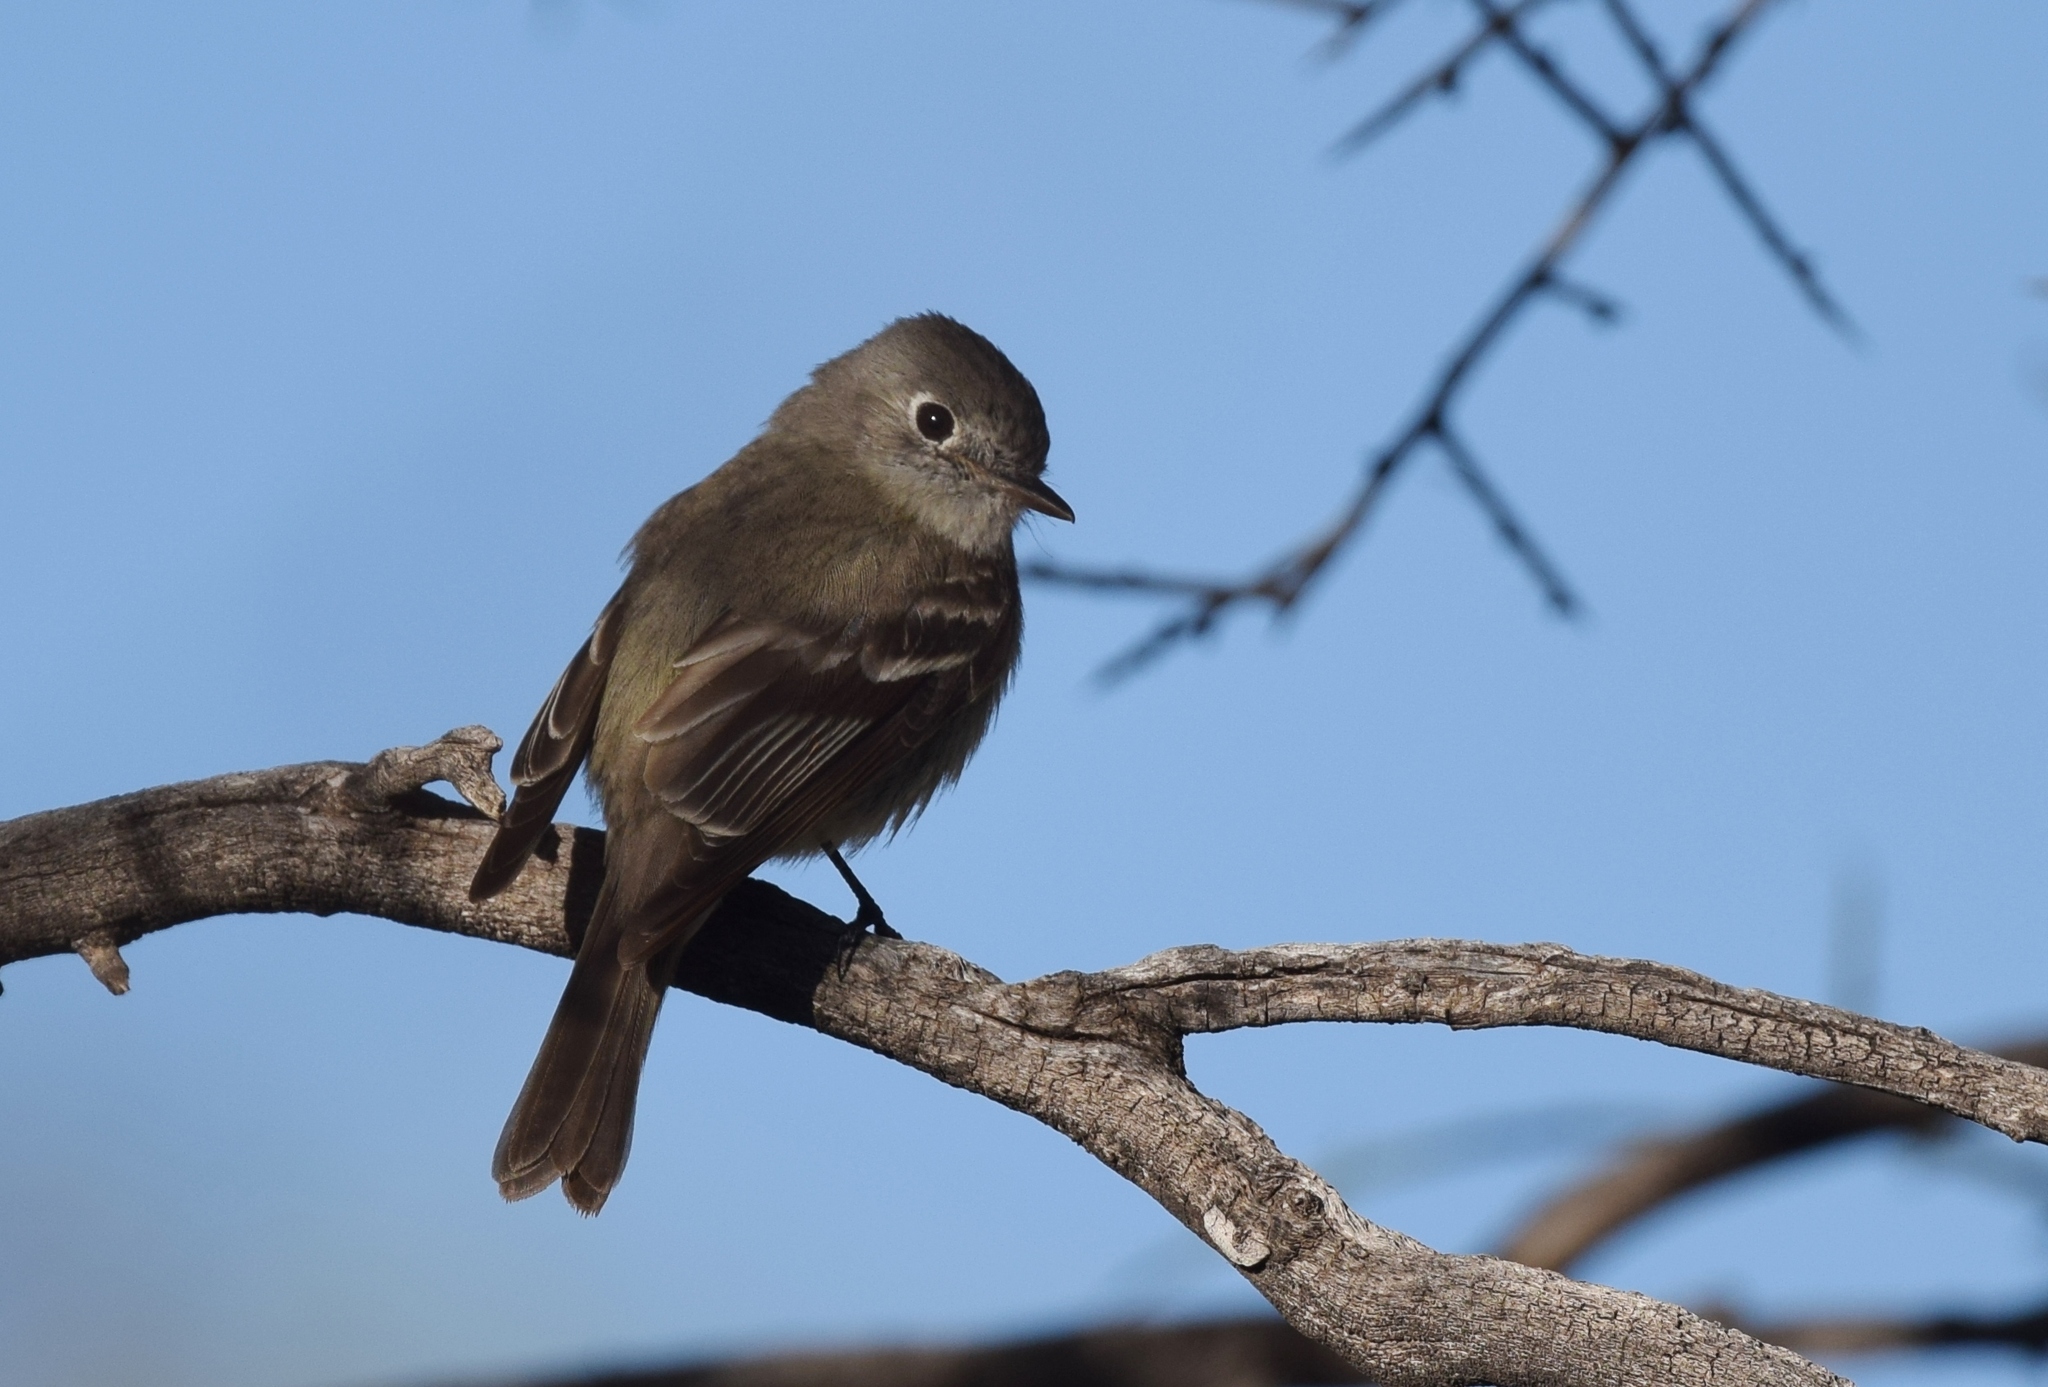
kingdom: Animalia
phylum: Chordata
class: Aves
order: Passeriformes
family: Tyrannidae
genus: Empidonax
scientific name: Empidonax hammondii
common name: Hammond's flycatcher
